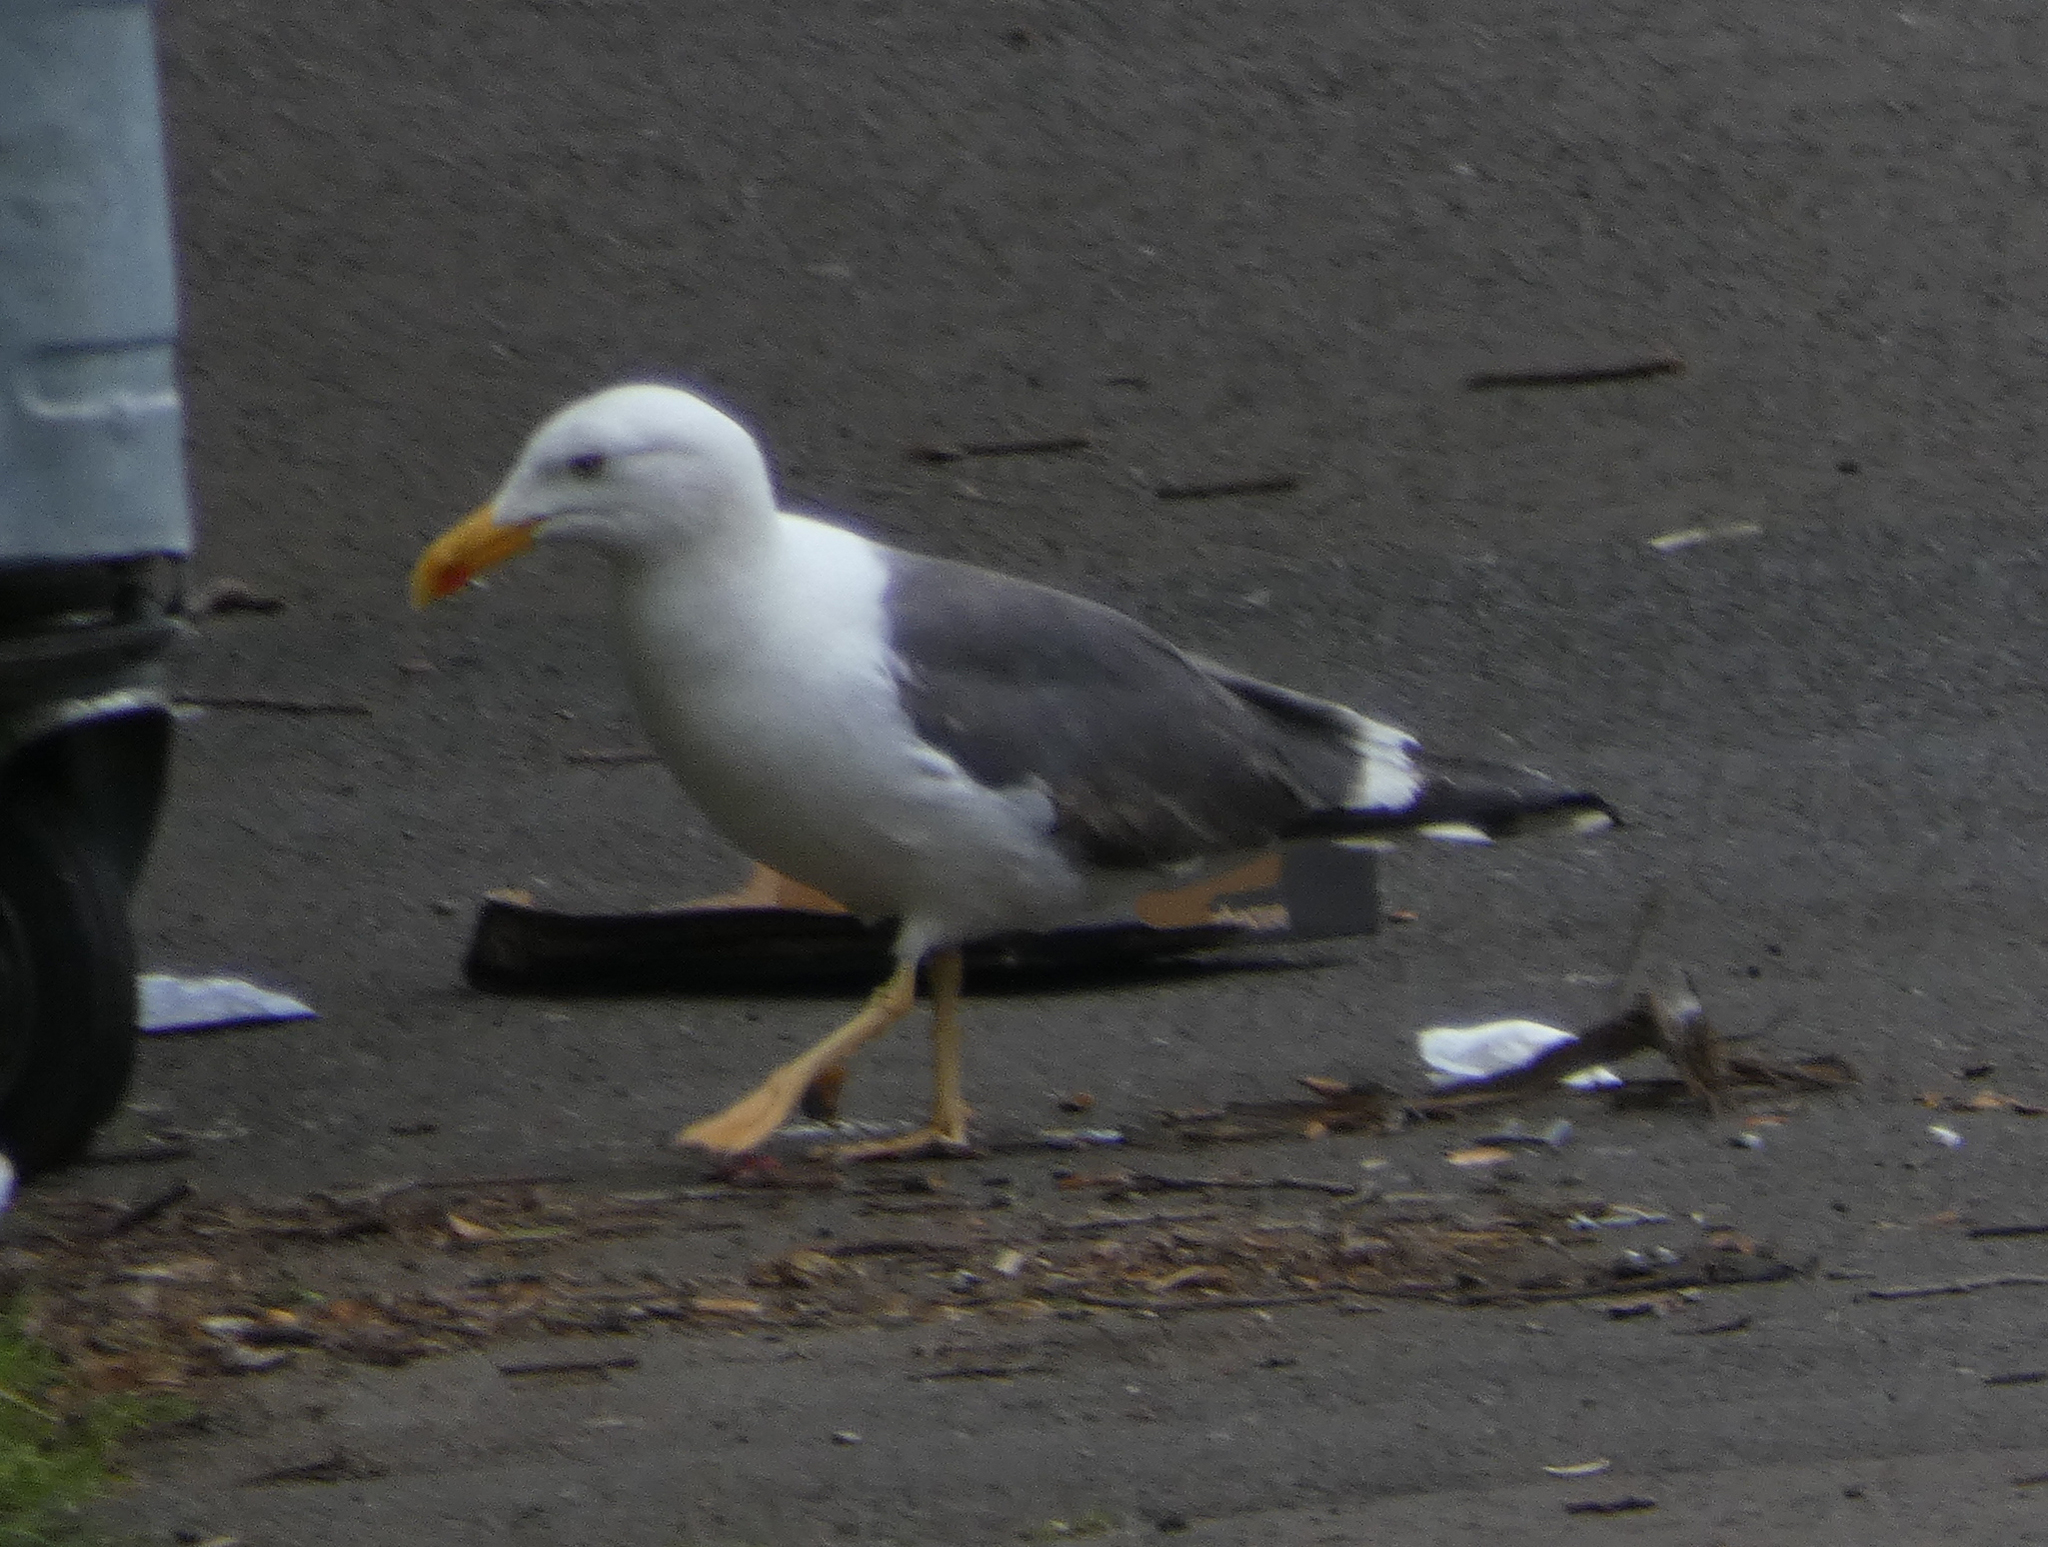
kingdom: Animalia
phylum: Chordata
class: Aves
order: Charadriiformes
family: Laridae
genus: Larus
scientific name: Larus fuscus
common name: Lesser black-backed gull
